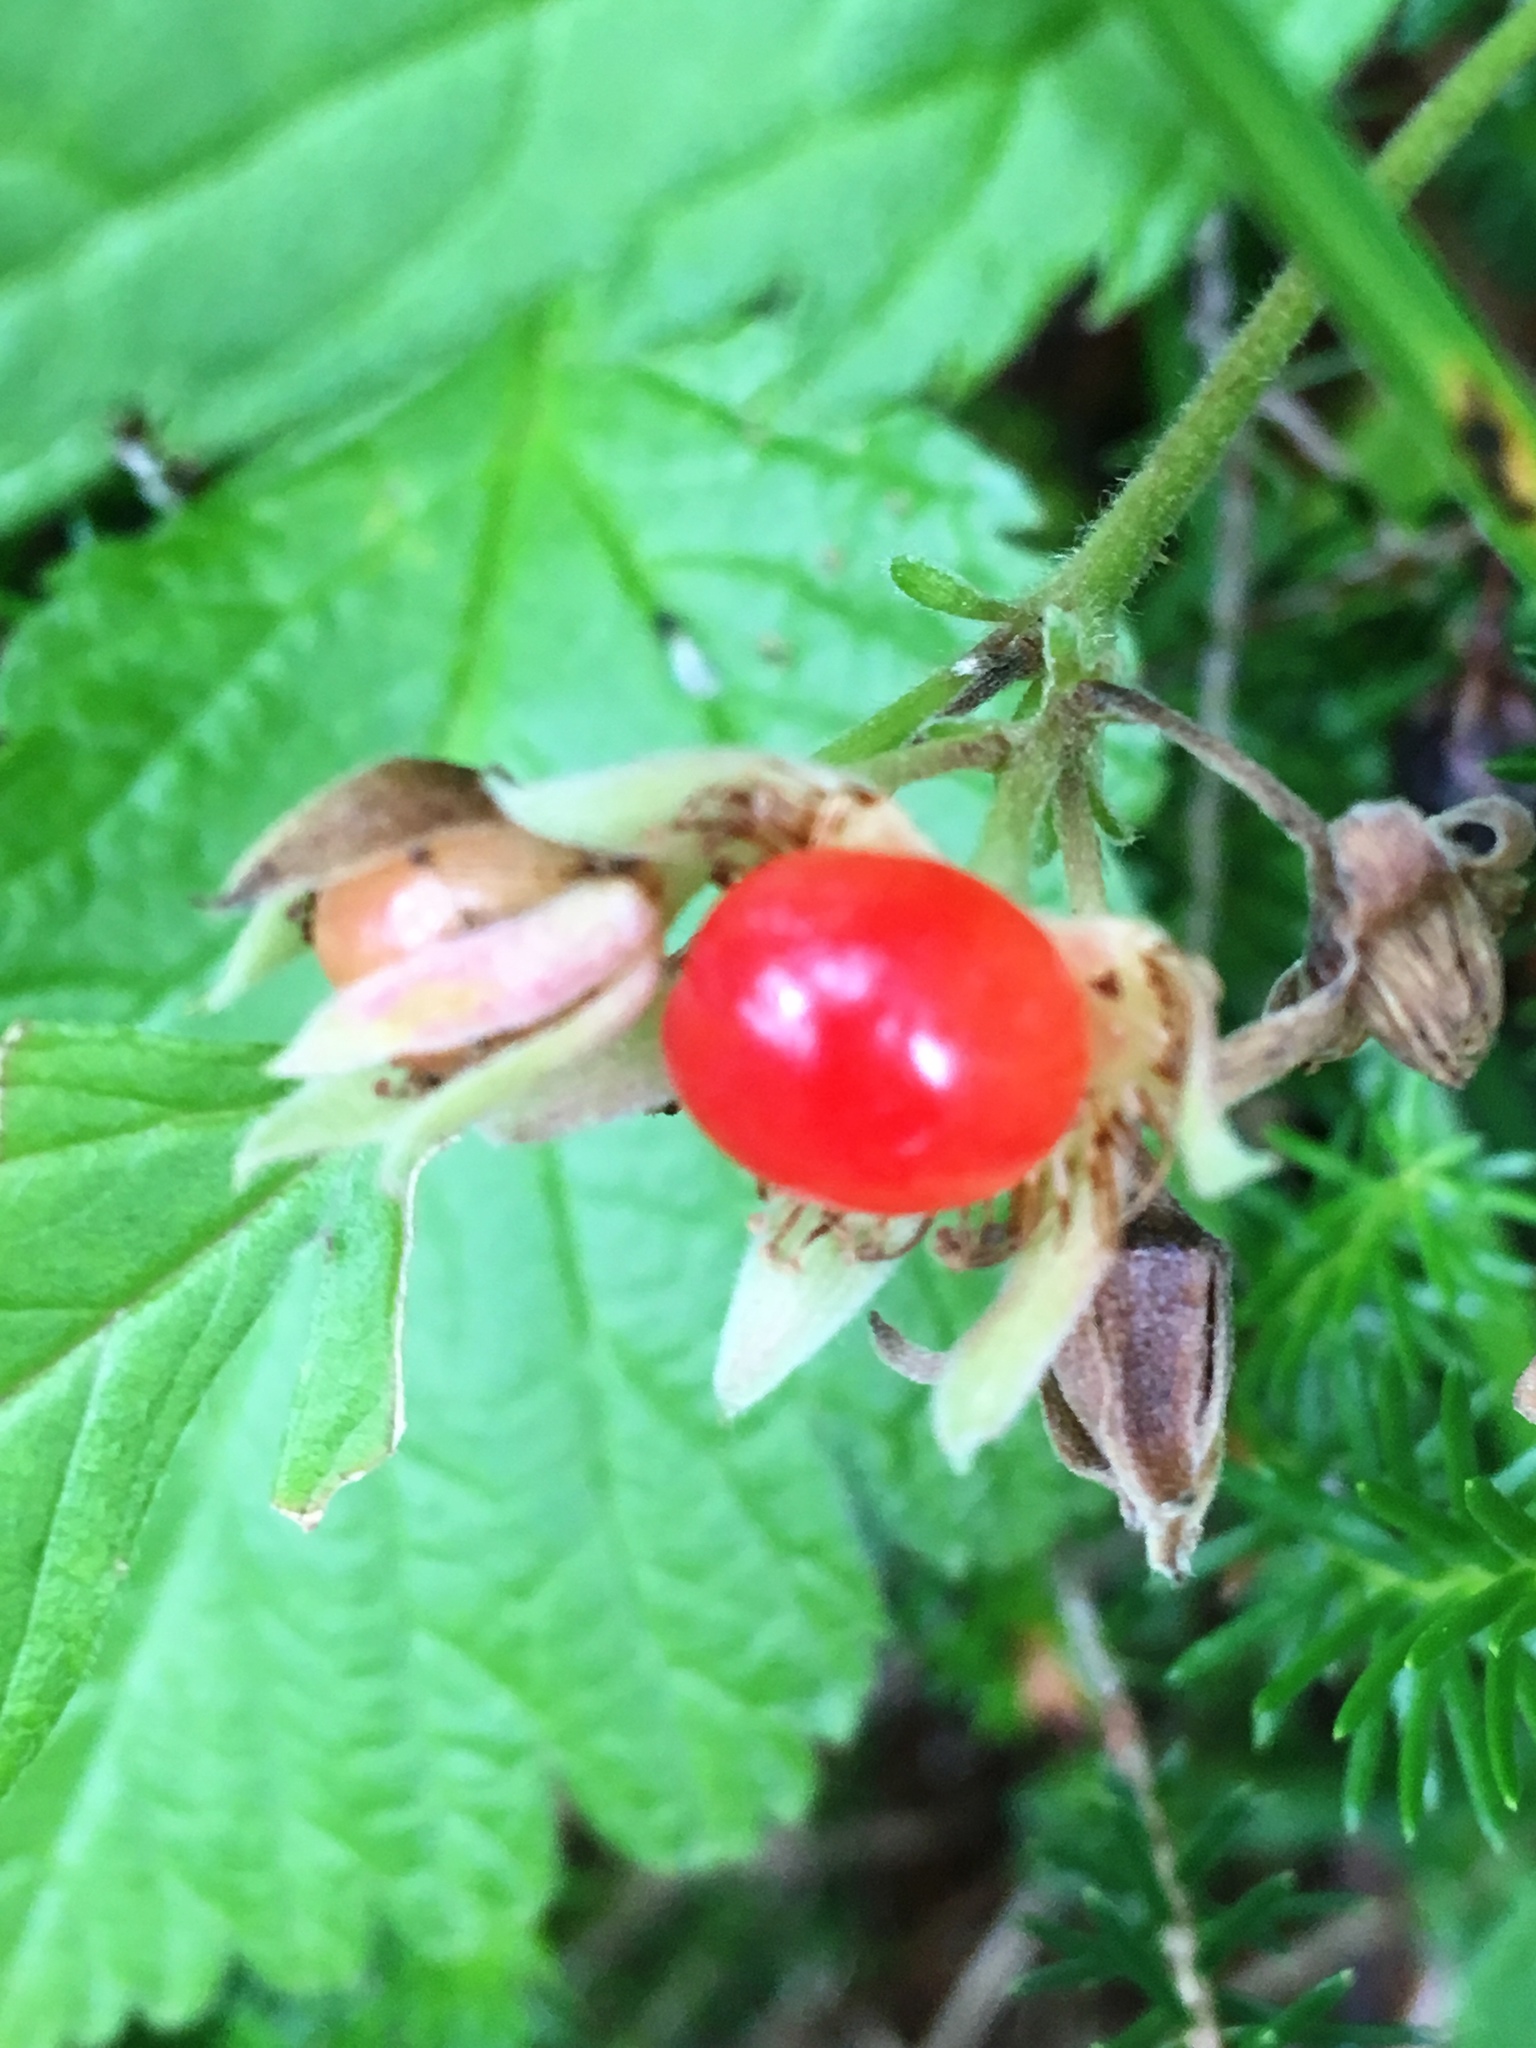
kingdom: Plantae
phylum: Tracheophyta
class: Magnoliopsida
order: Rosales
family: Rosaceae
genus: Rubus
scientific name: Rubus saxatilis
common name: Stone bramble
